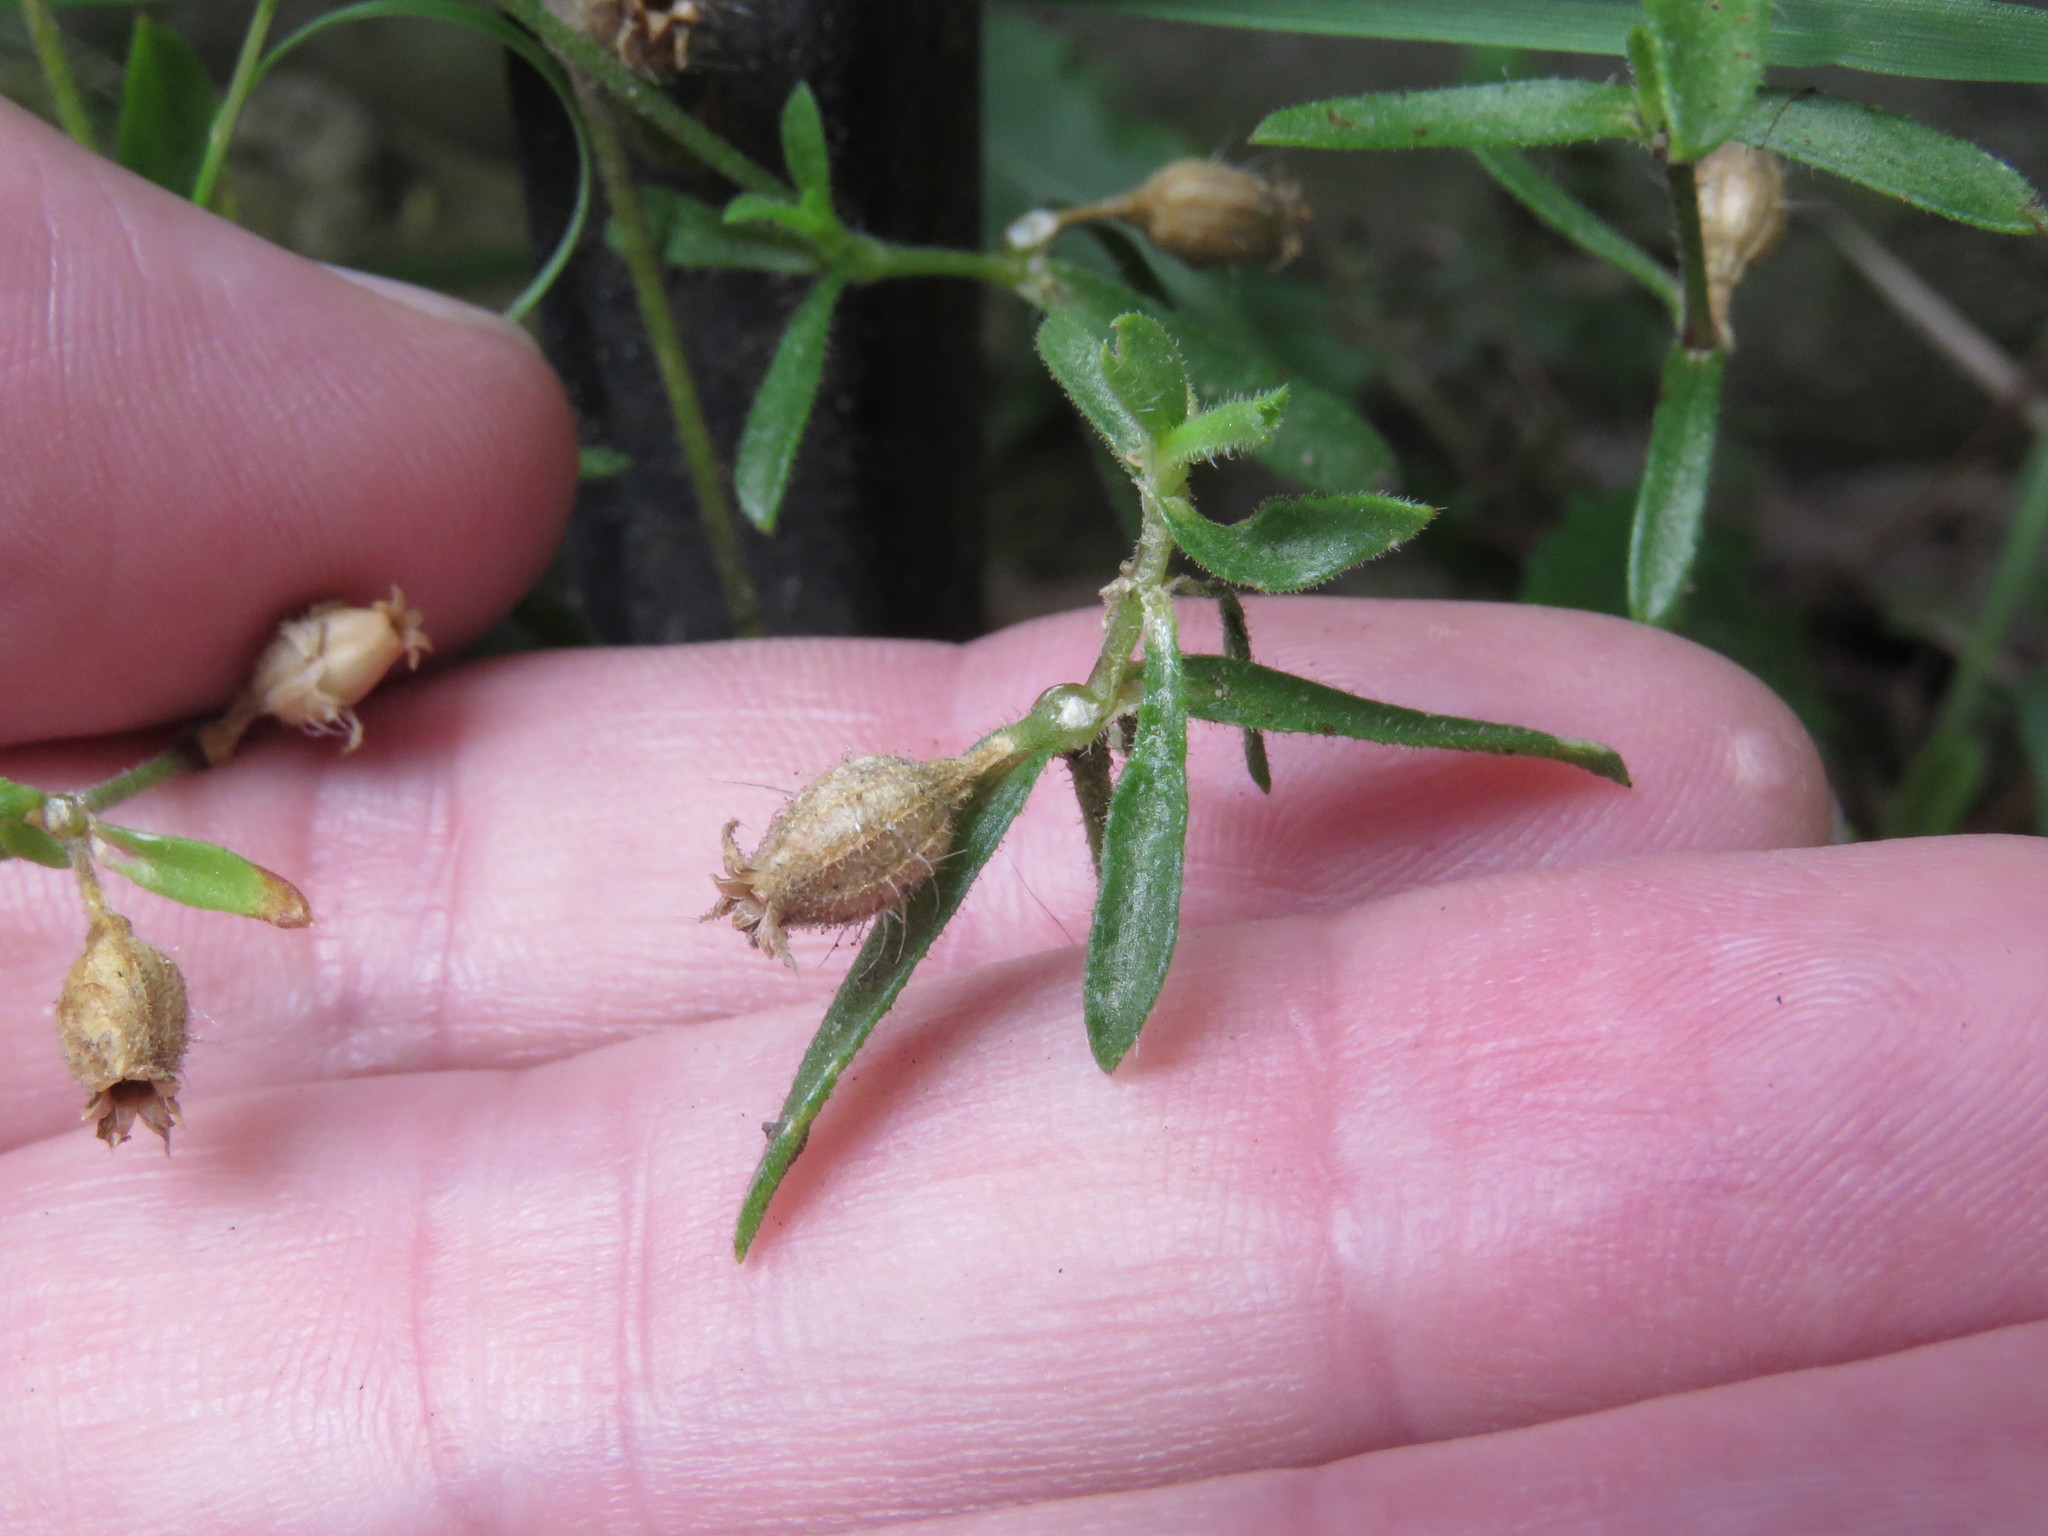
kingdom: Plantae
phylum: Tracheophyta
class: Magnoliopsida
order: Caryophyllales
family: Caryophyllaceae
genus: Silene
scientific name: Silene gallica
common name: Small-flowered catchfly
